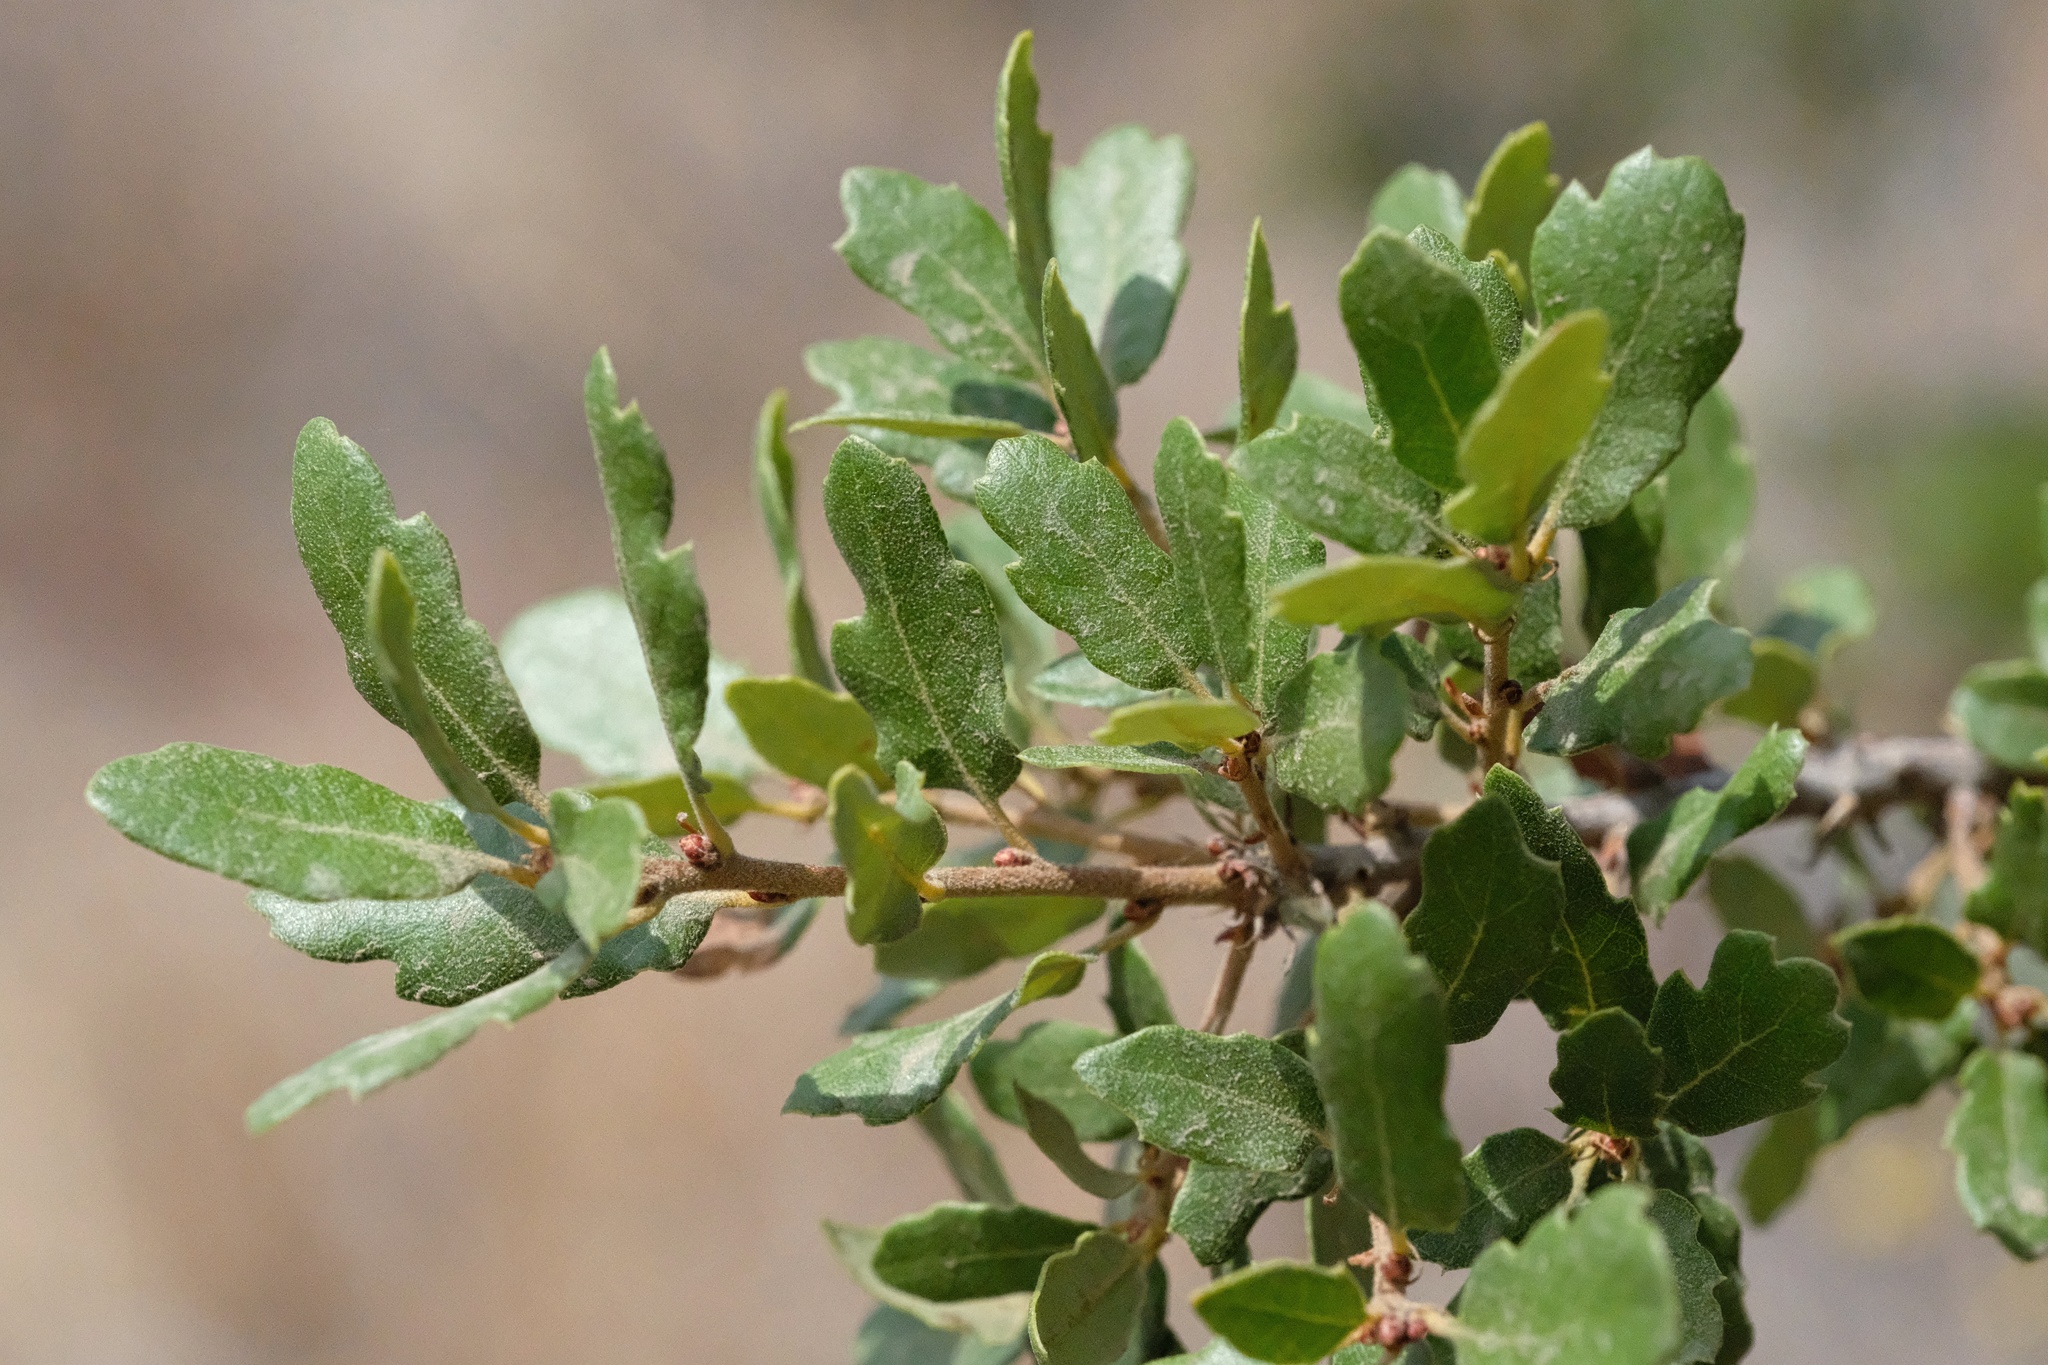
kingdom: Plantae
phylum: Tracheophyta
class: Magnoliopsida
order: Fagales
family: Fagaceae
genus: Quercus
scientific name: Quercus acutidens
